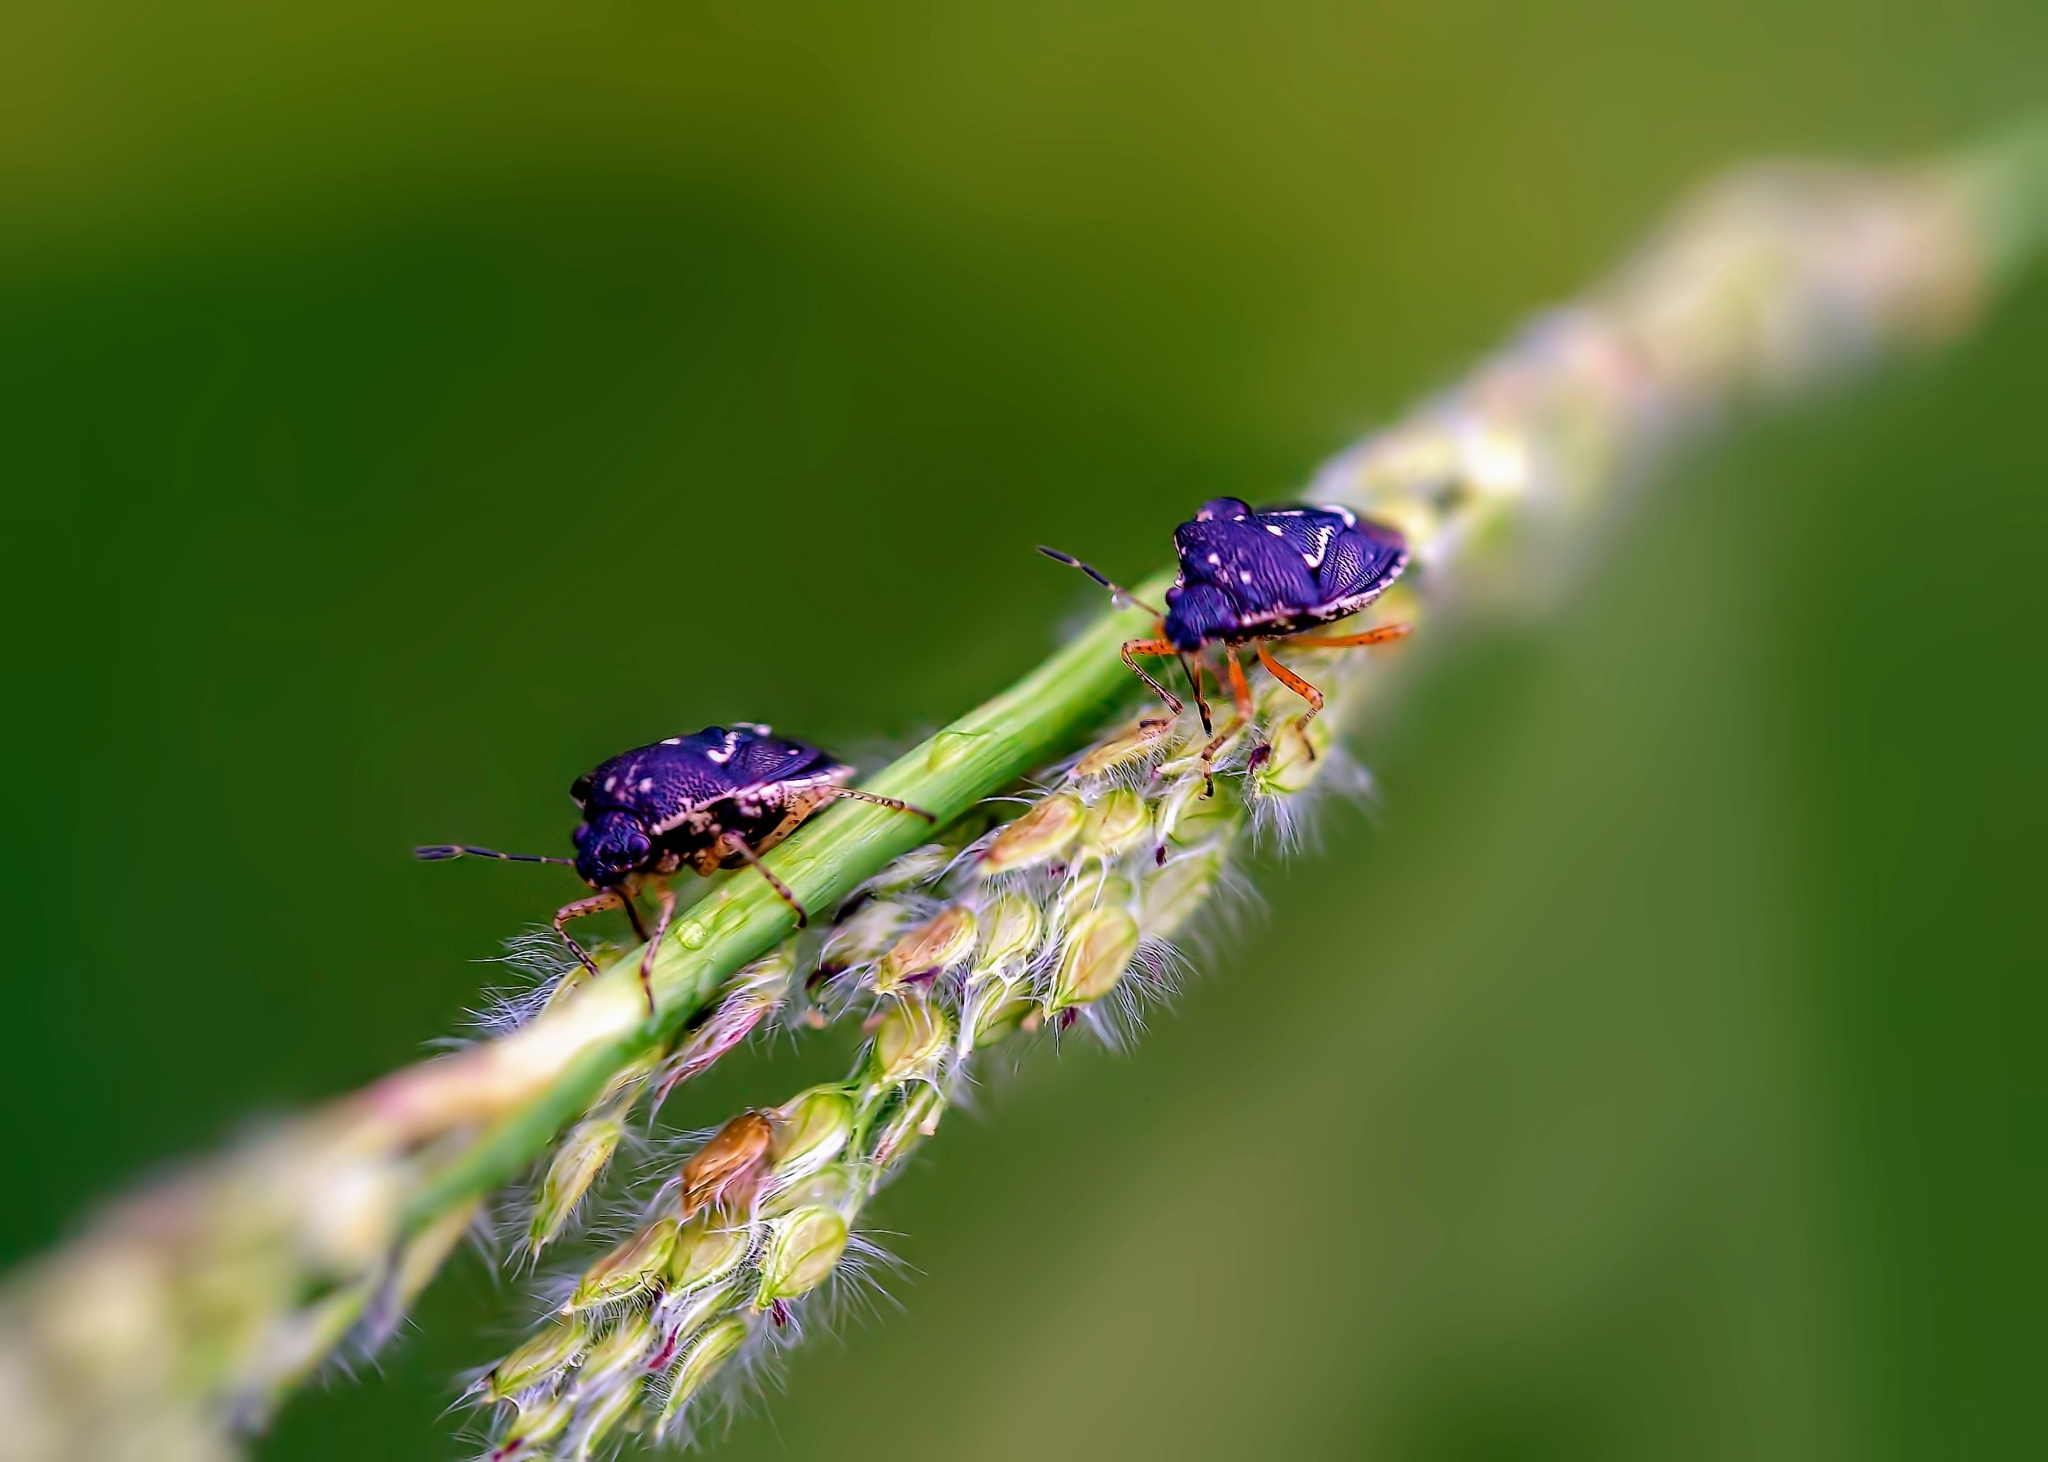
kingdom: Animalia
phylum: Arthropoda
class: Insecta
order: Hemiptera
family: Pentatomidae
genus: Mormidea
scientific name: Mormidea pama
